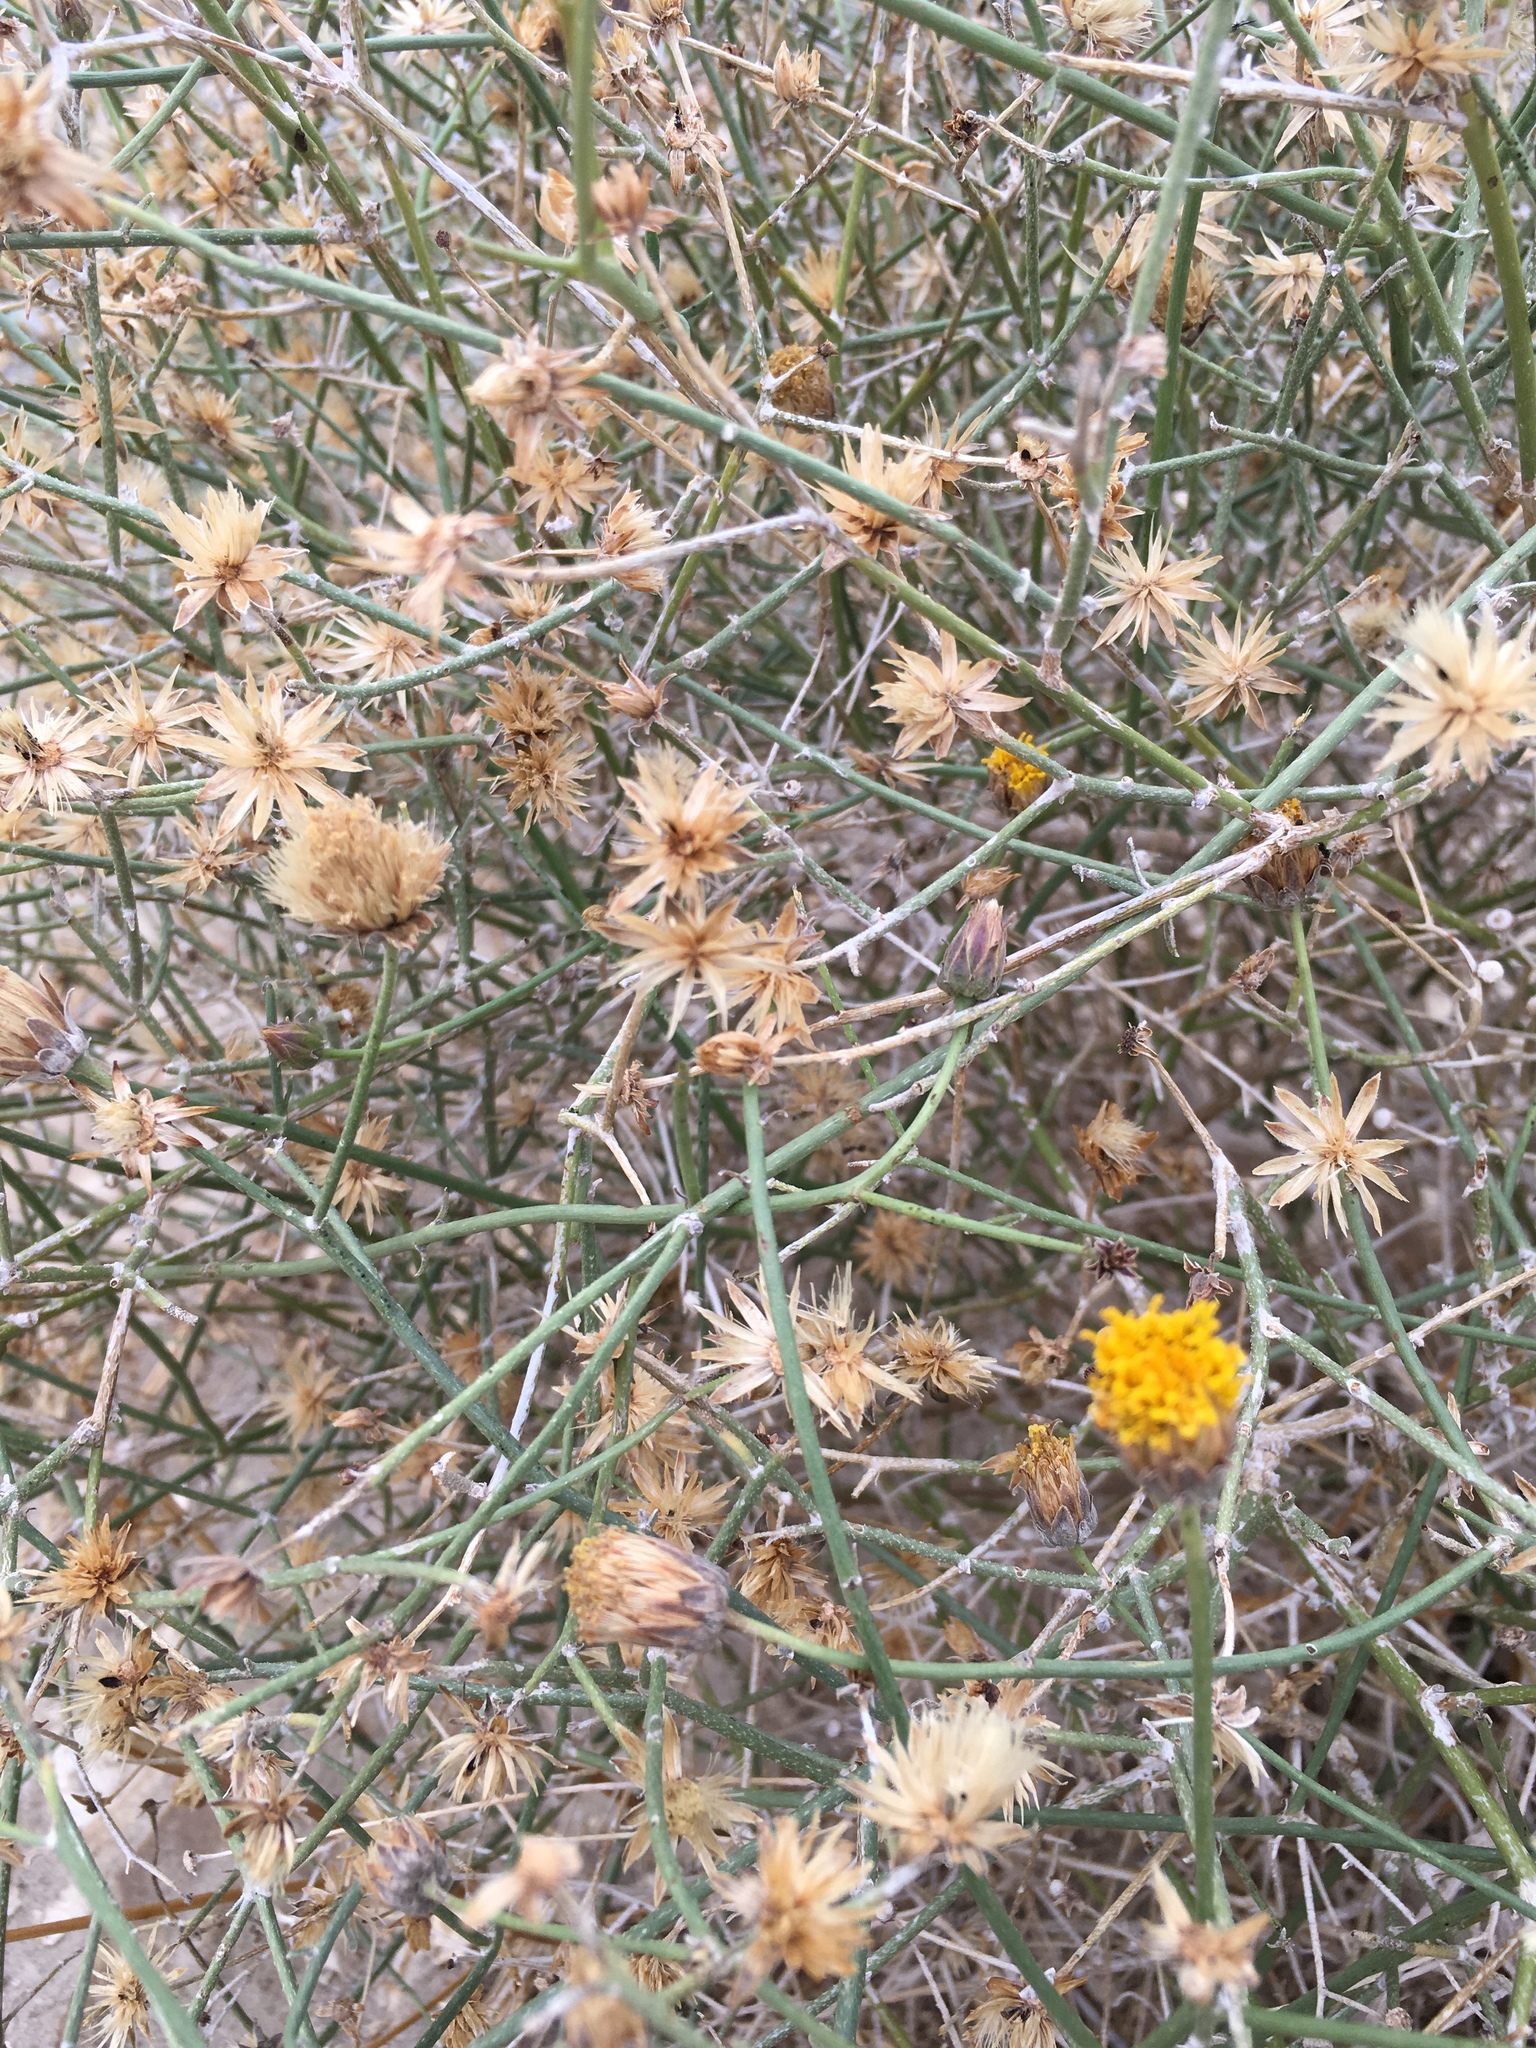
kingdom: Plantae
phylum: Tracheophyta
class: Magnoliopsida
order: Asterales
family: Asteraceae
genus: Bebbia
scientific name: Bebbia juncea
